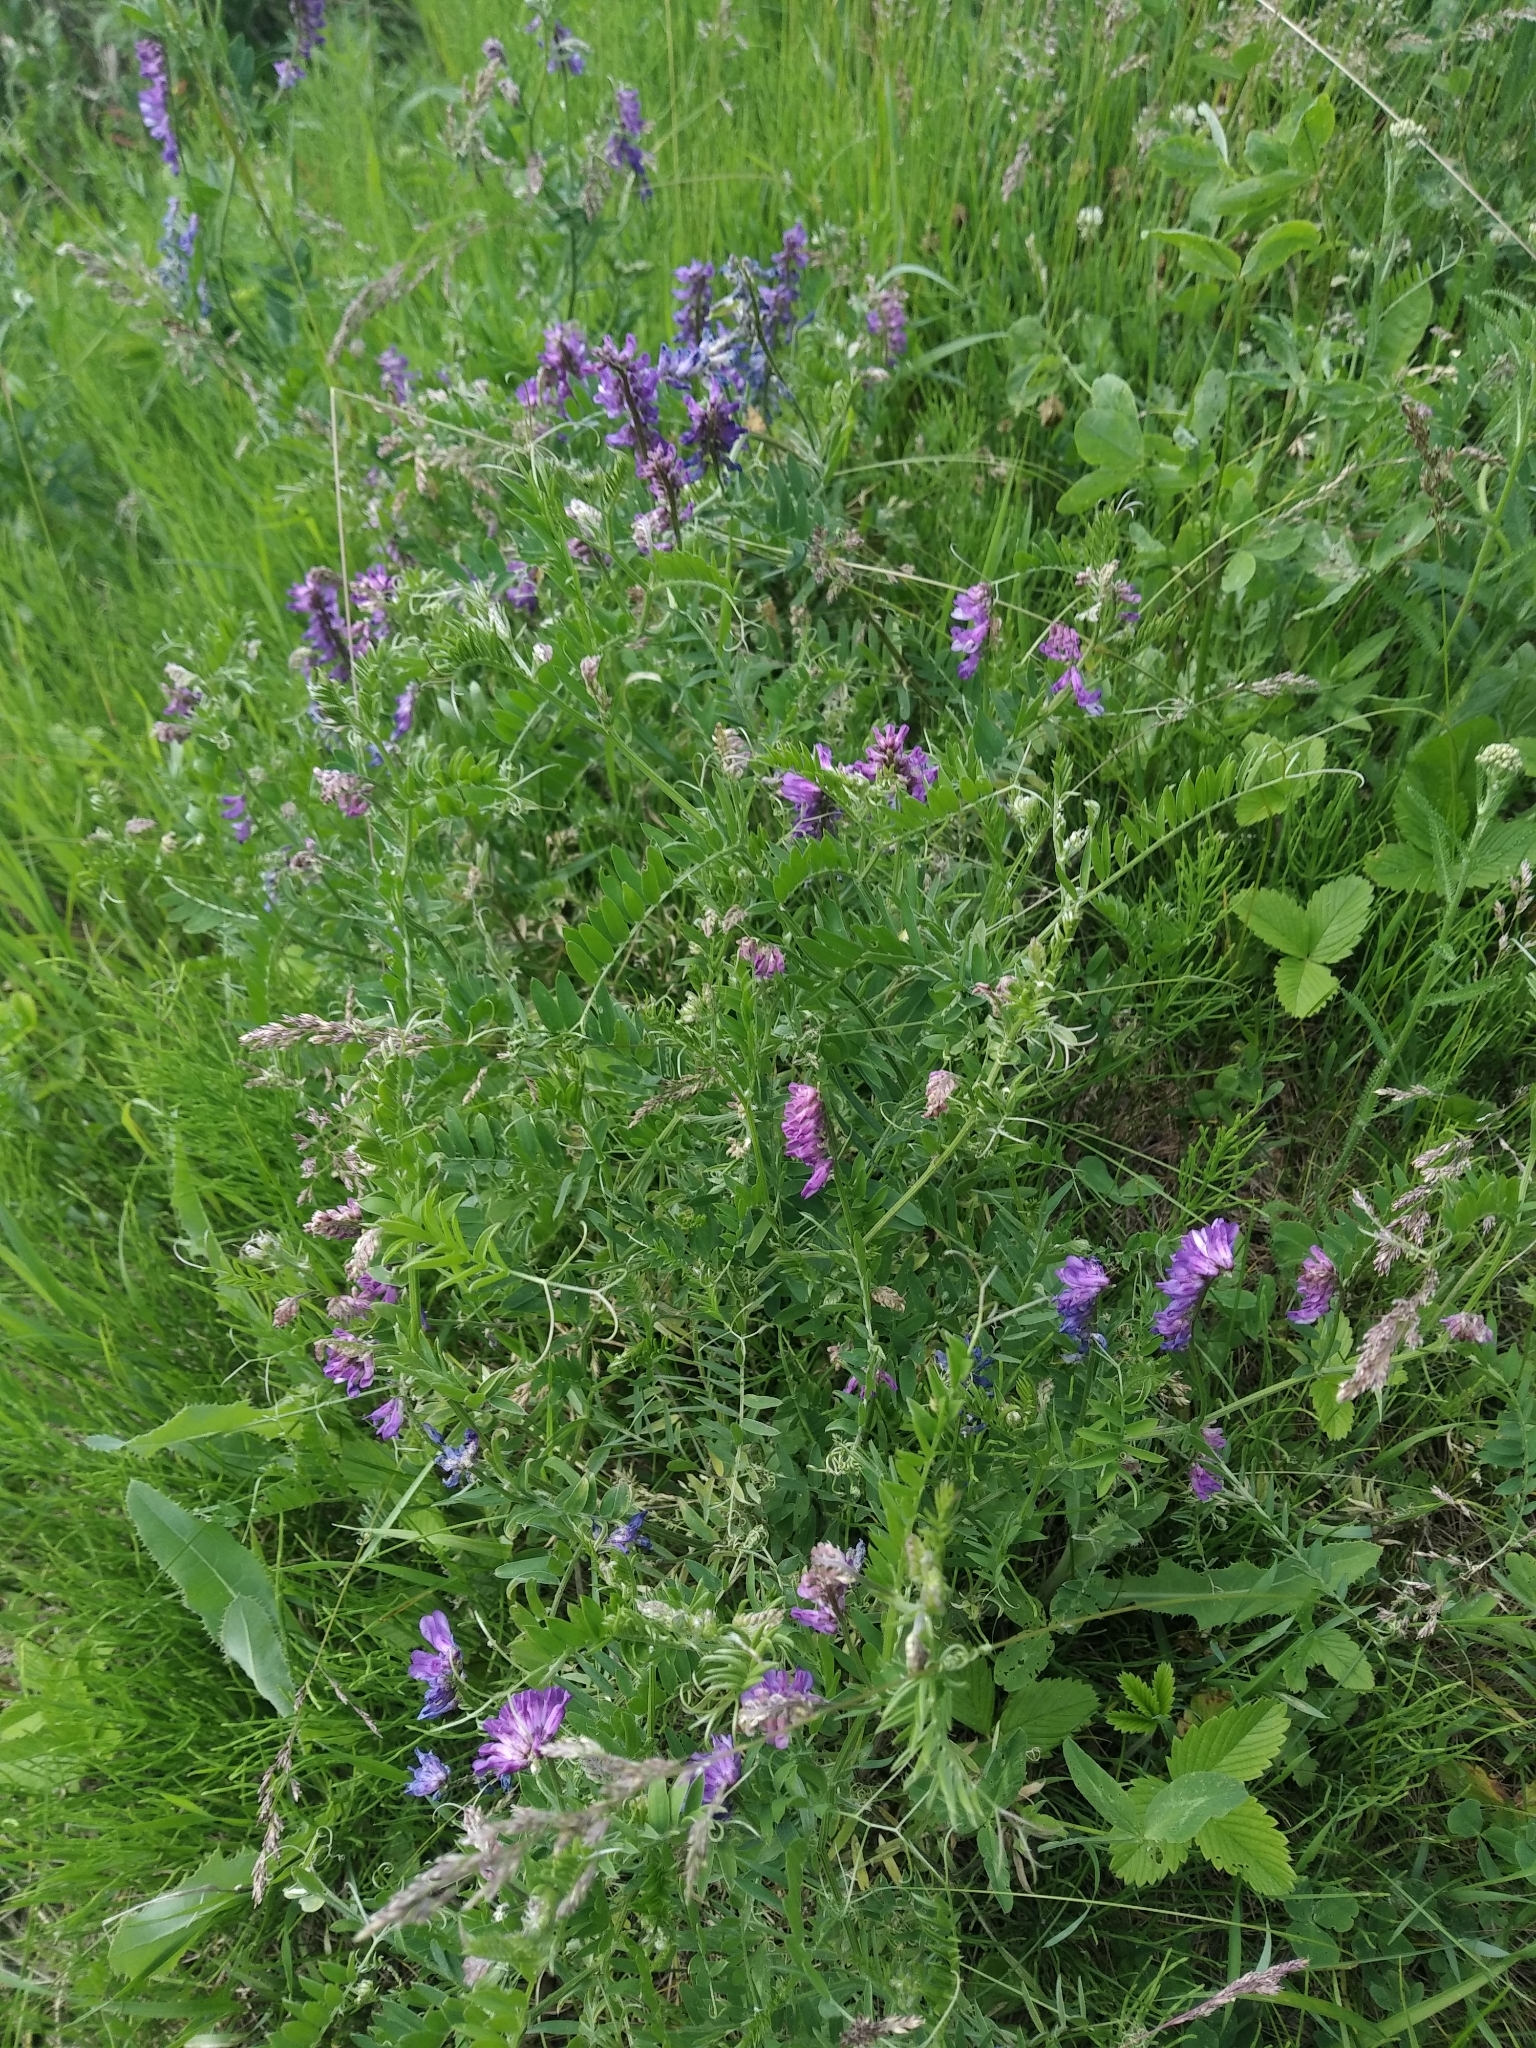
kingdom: Plantae
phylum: Tracheophyta
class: Magnoliopsida
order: Fabales
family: Fabaceae
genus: Vicia
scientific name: Vicia cracca
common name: Bird vetch
